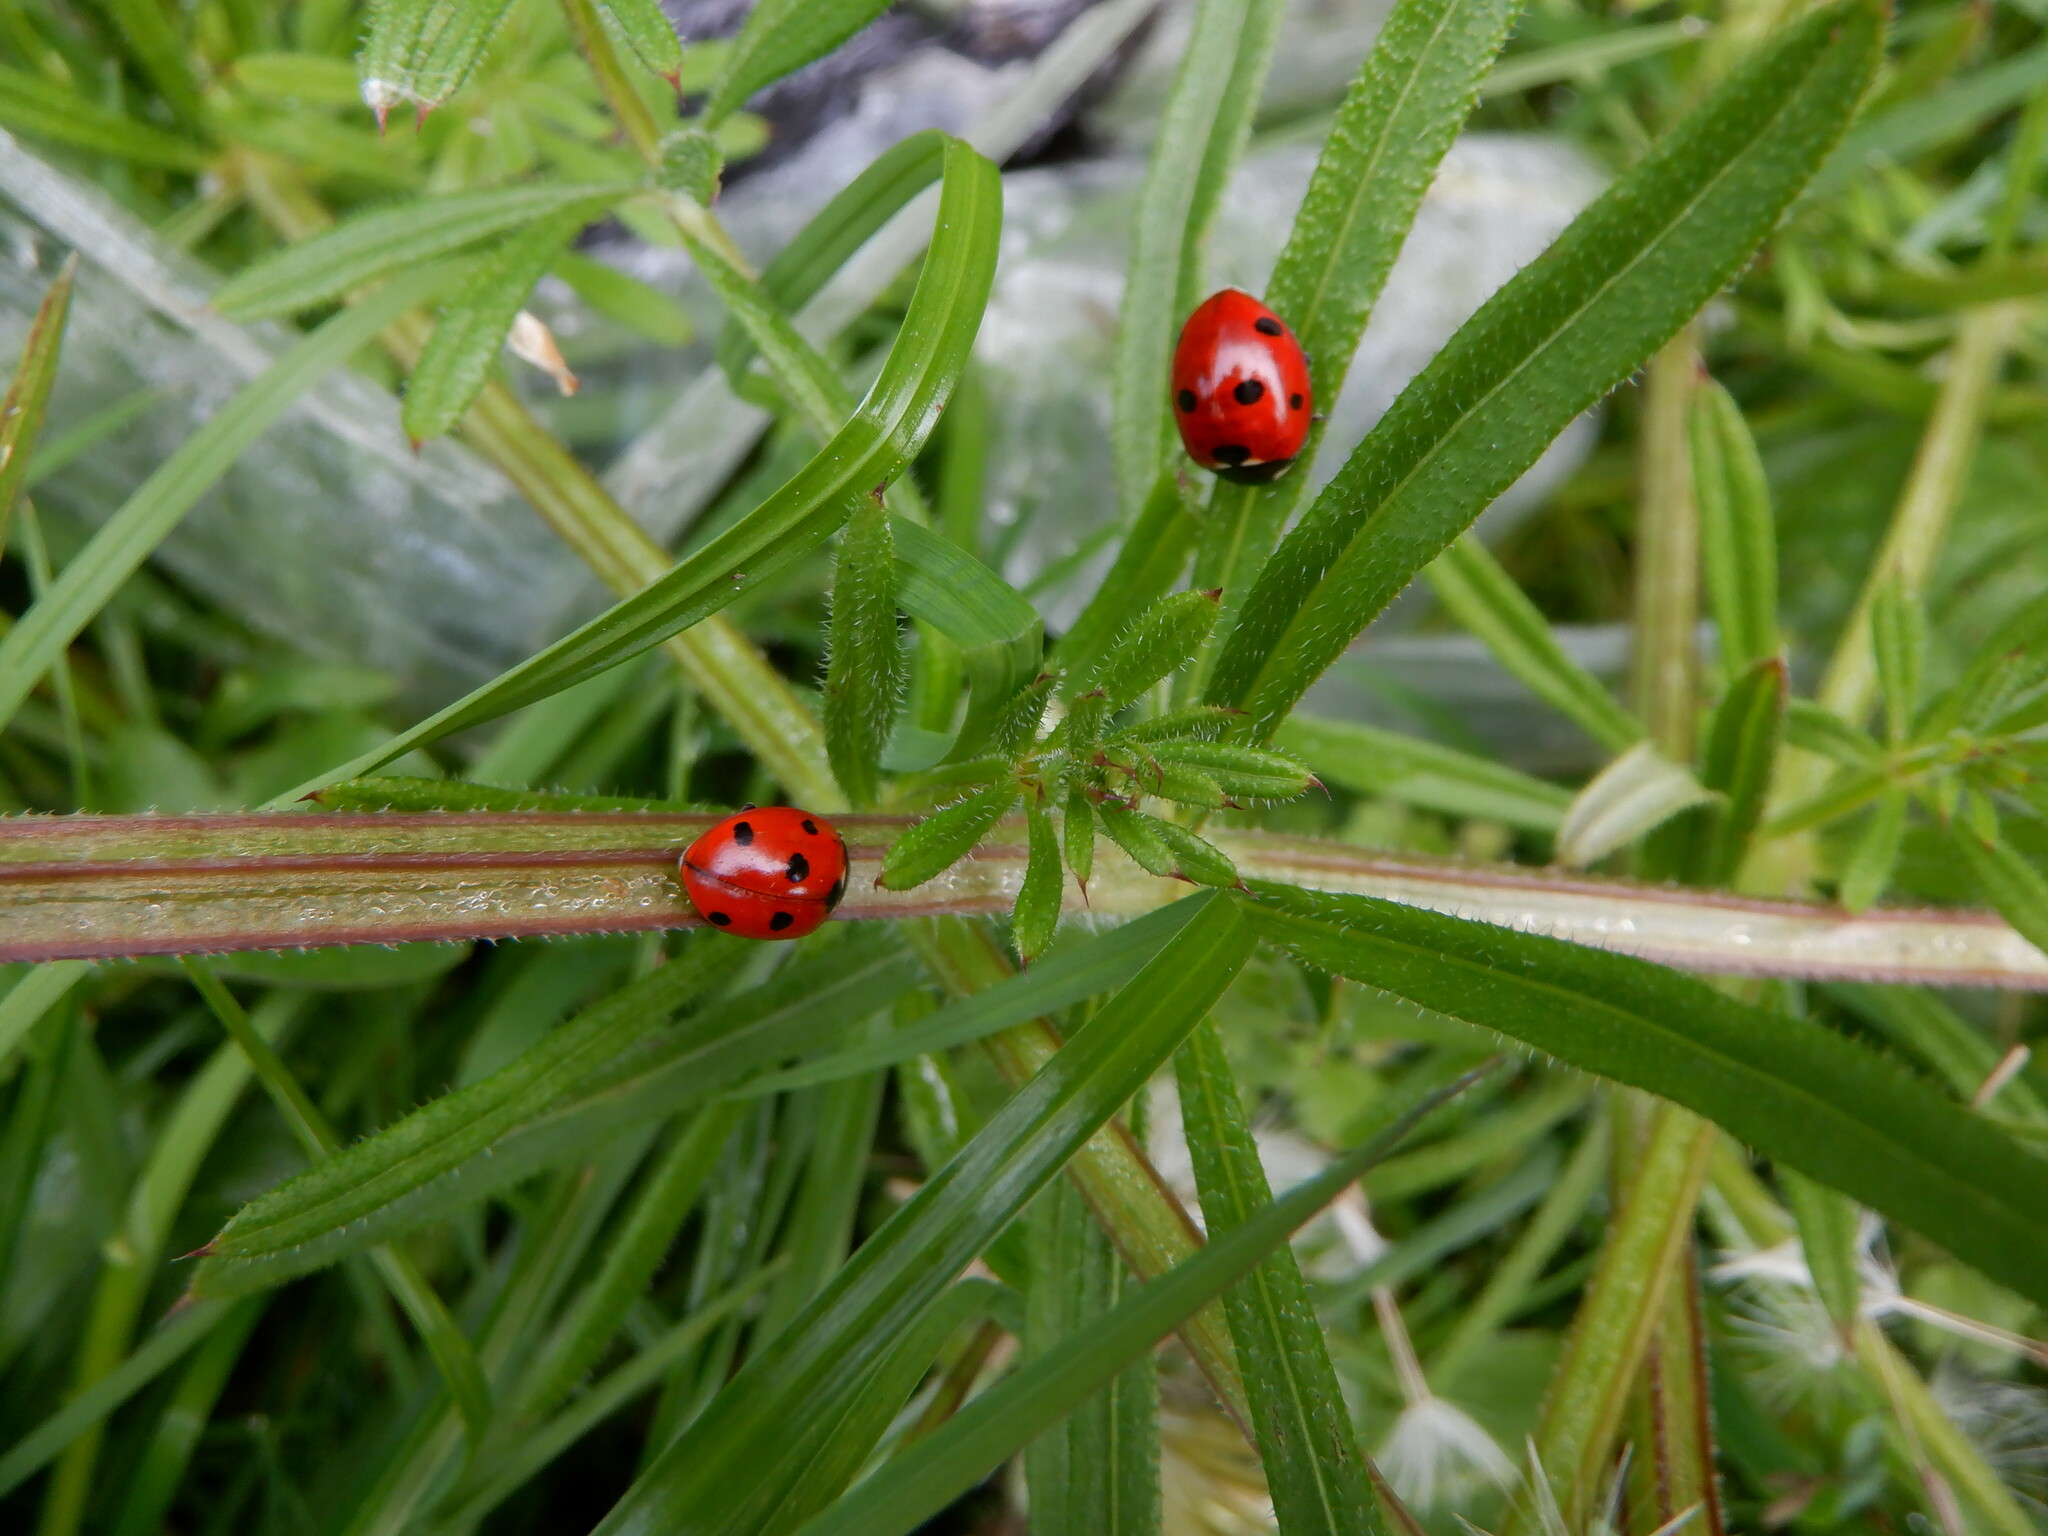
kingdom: Animalia
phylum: Arthropoda
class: Insecta
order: Coleoptera
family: Coccinellidae
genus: Coccinella
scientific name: Coccinella septempunctata
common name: Sevenspotted lady beetle
